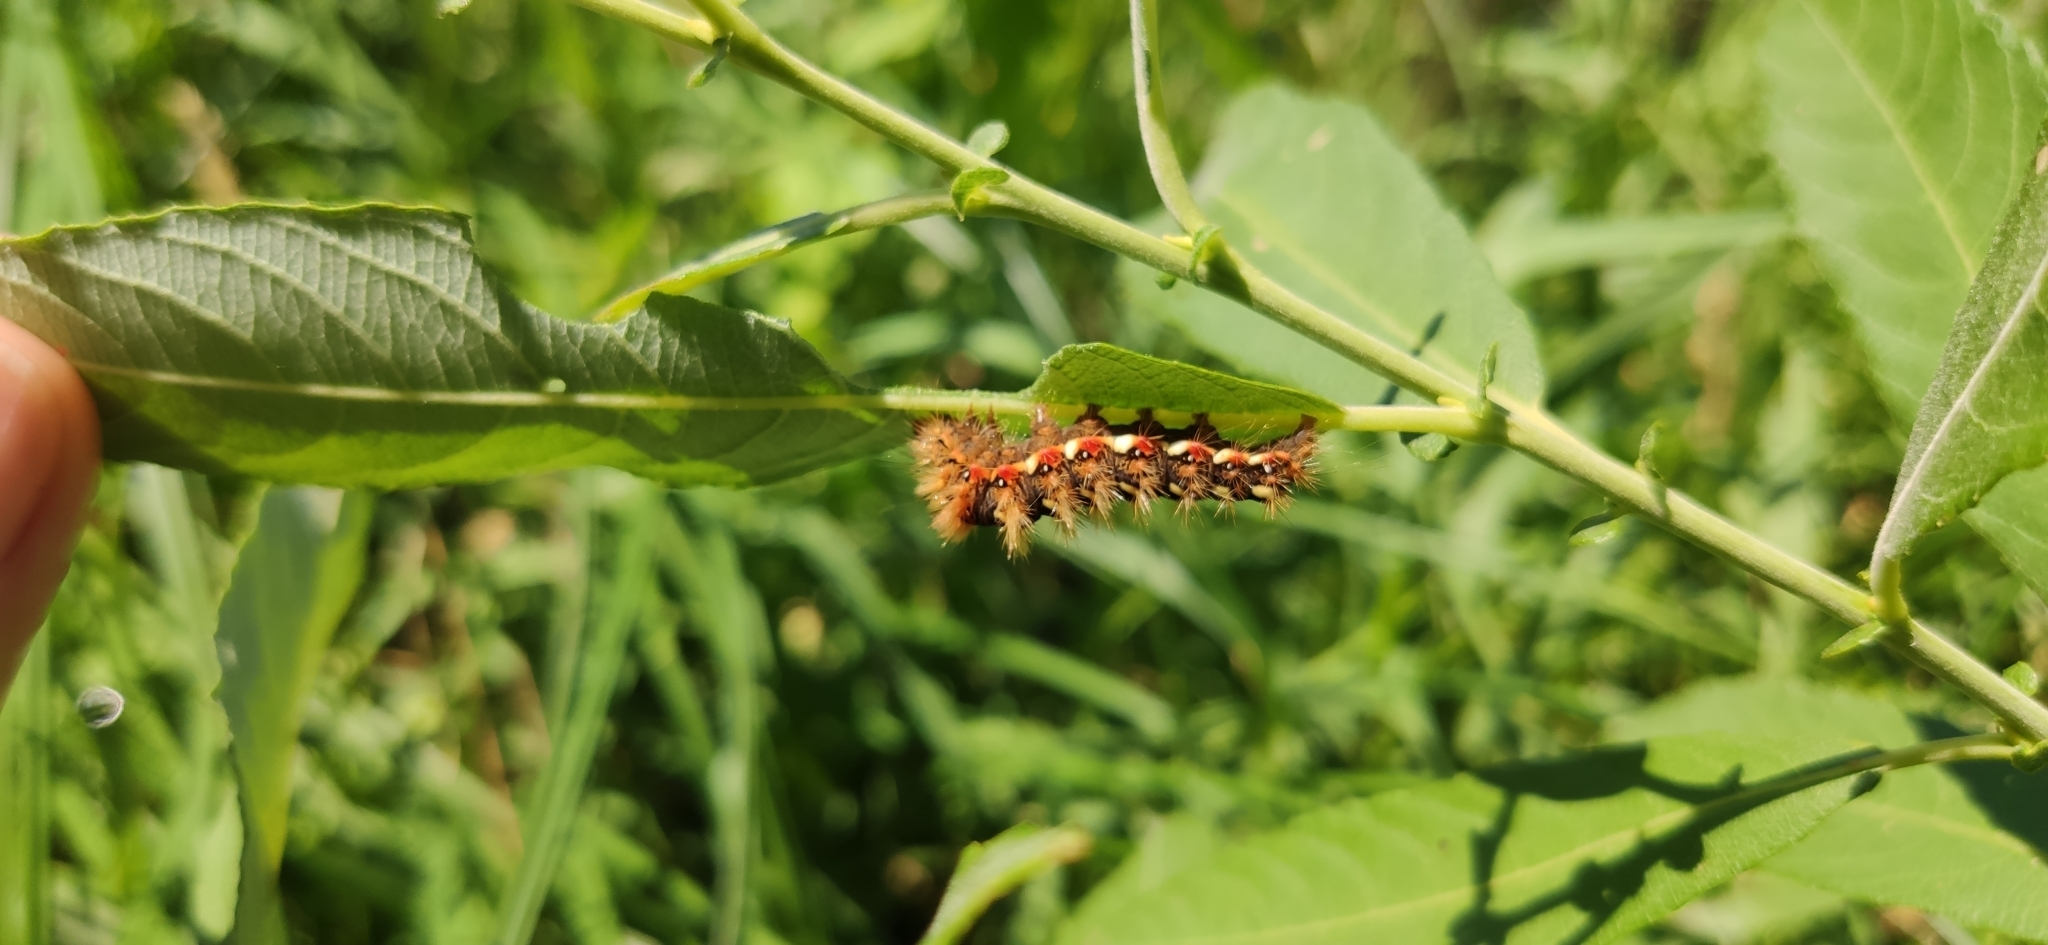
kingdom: Animalia
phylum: Arthropoda
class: Insecta
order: Lepidoptera
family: Noctuidae
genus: Acronicta
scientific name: Acronicta rumicis
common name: Knot grass
